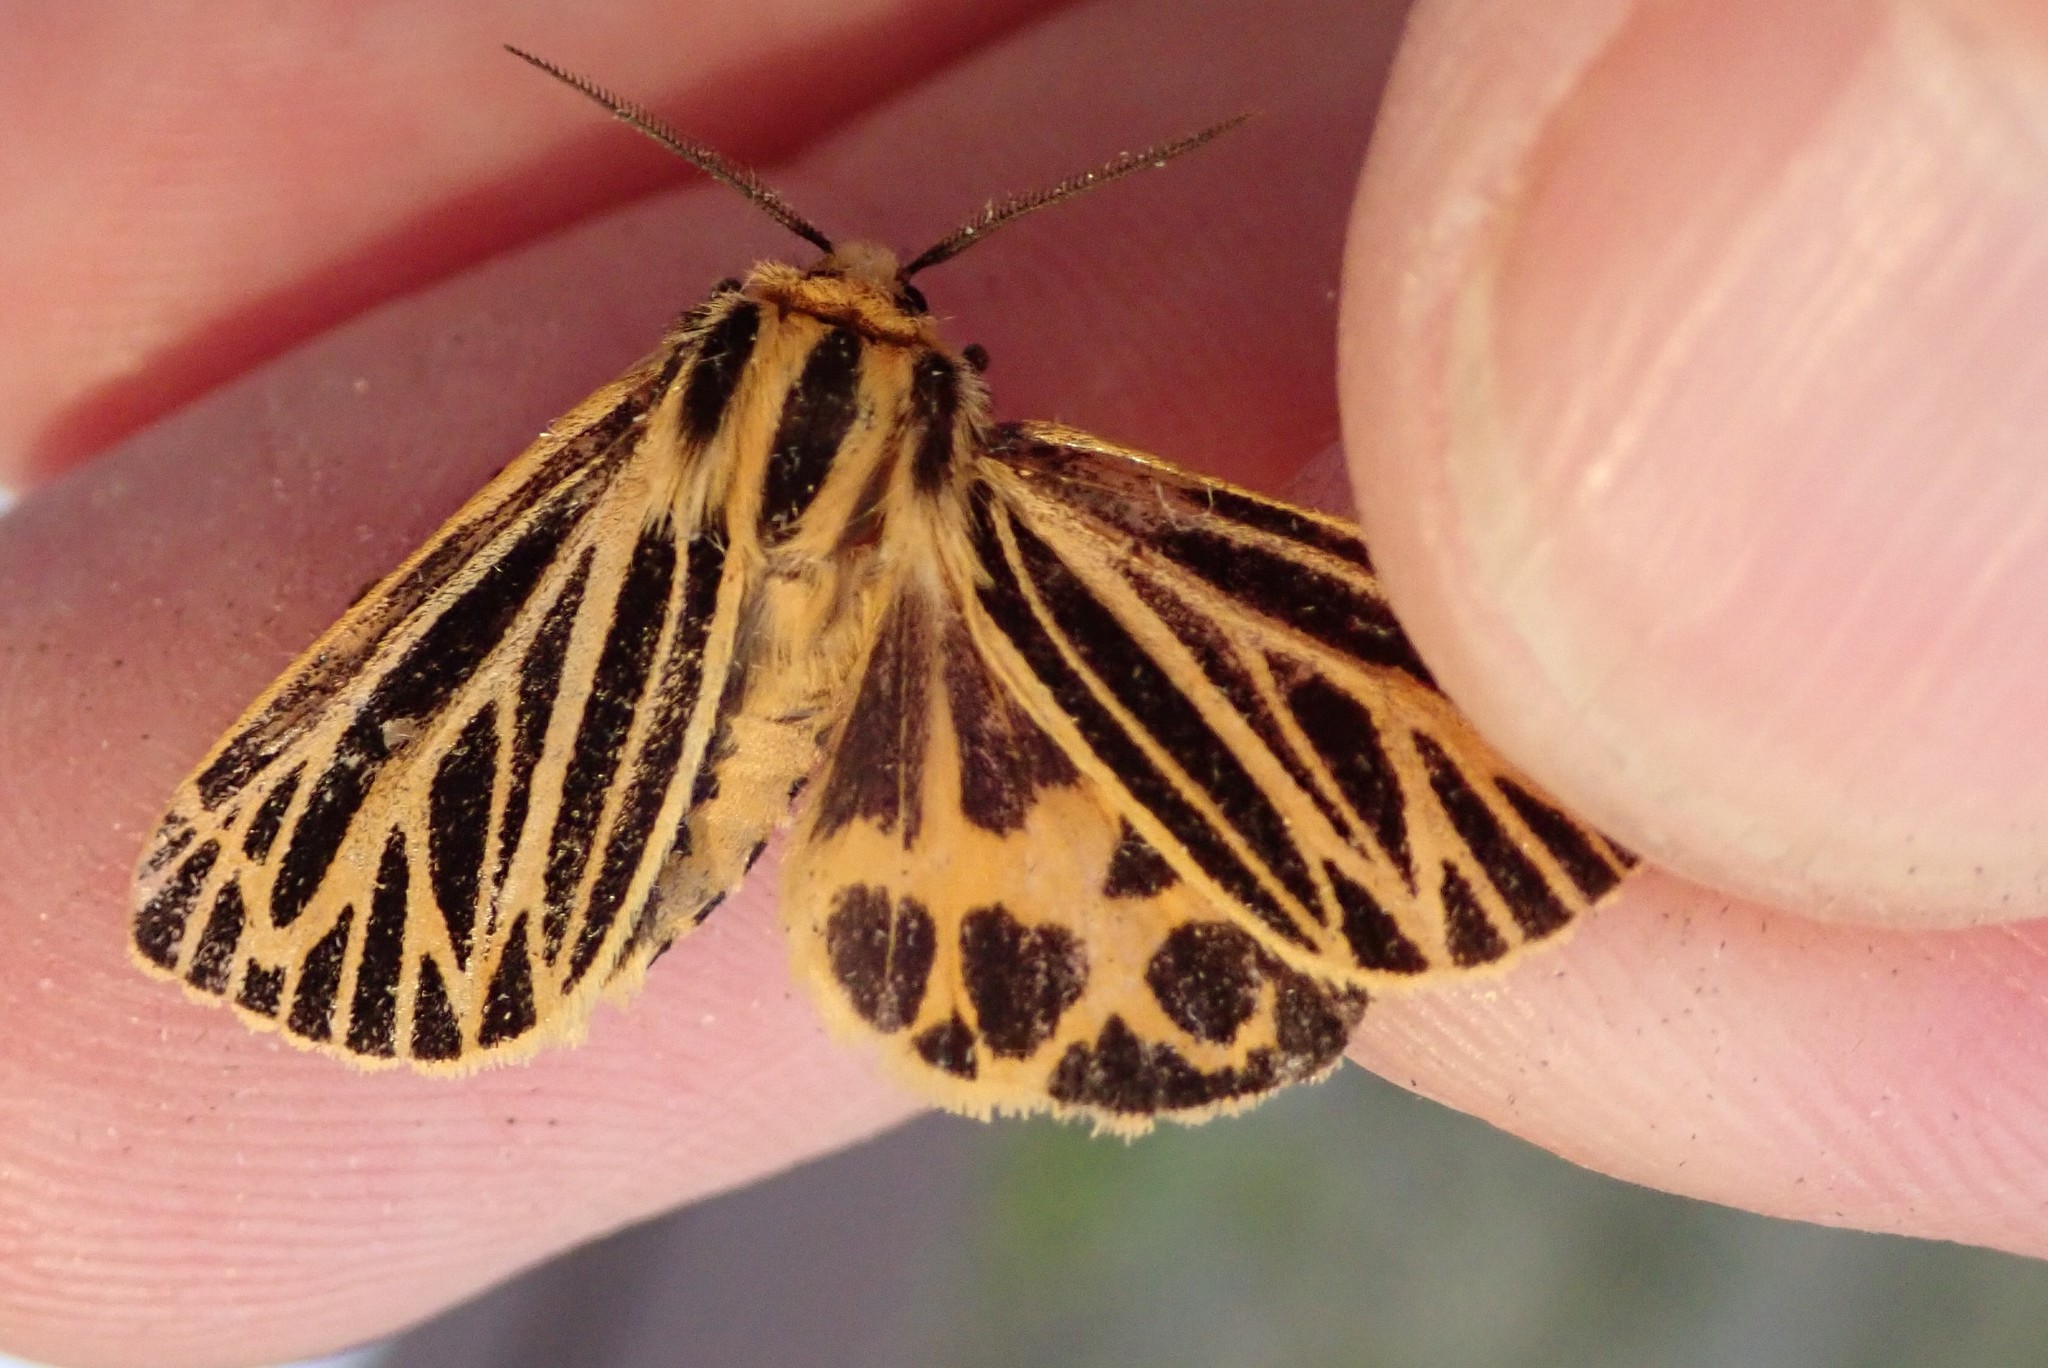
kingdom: Animalia
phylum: Arthropoda
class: Insecta
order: Lepidoptera
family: Erebidae
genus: Grammia
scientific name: Grammia virguncula
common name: Little tiger moth
